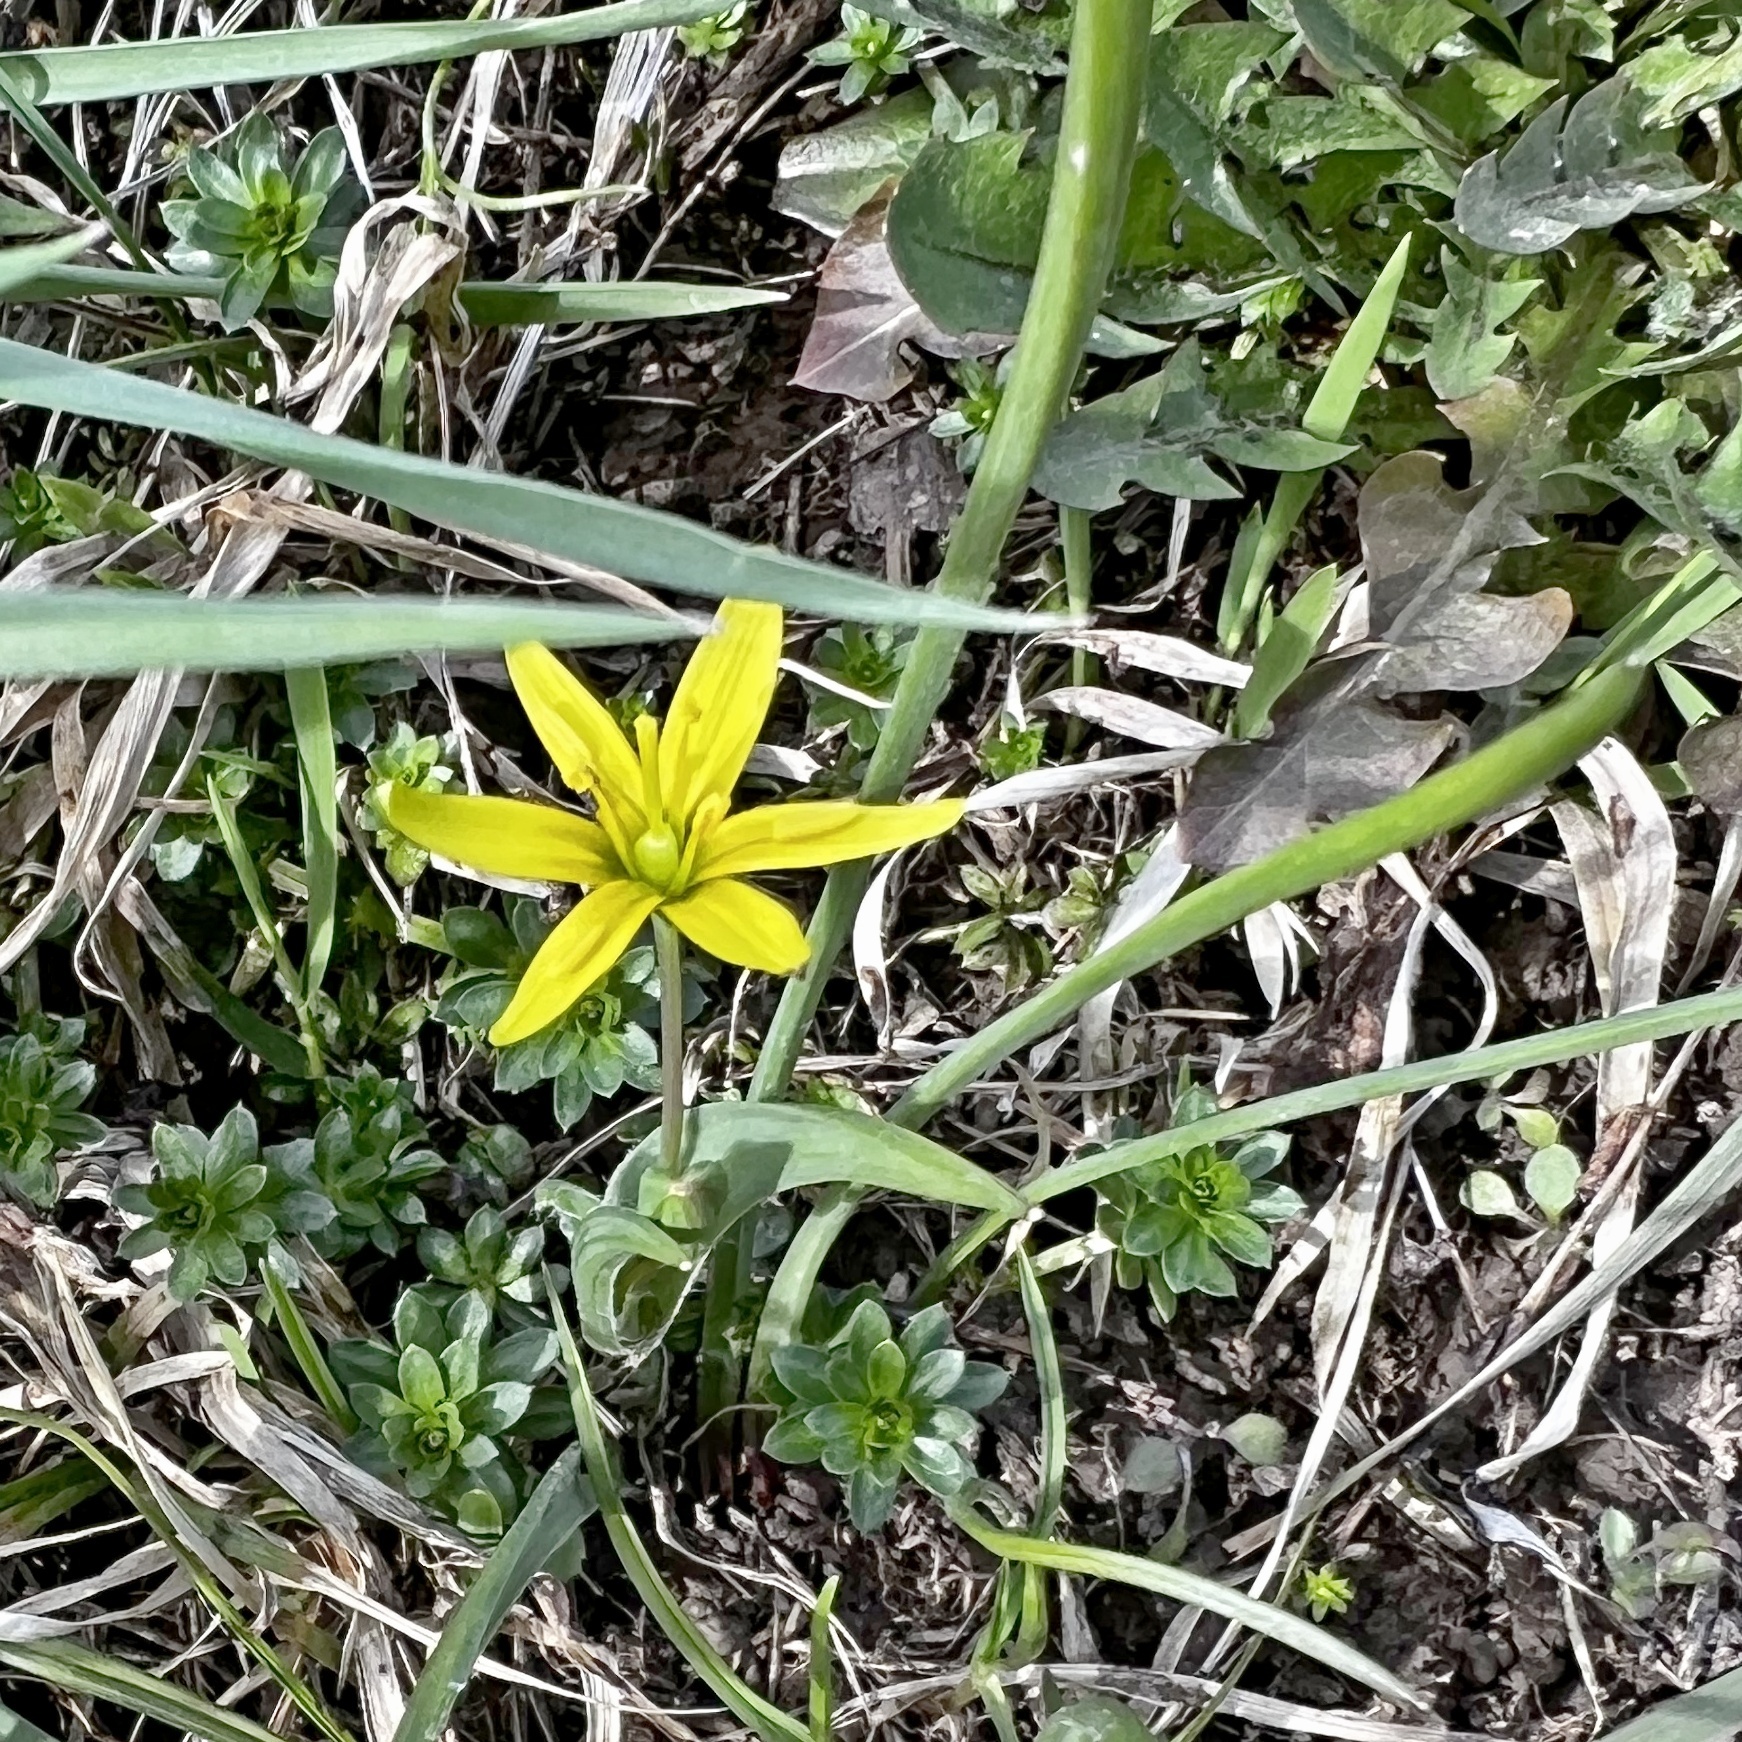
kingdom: Plantae
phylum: Tracheophyta
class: Liliopsida
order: Liliales
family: Liliaceae
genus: Gagea
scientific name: Gagea pratensis
